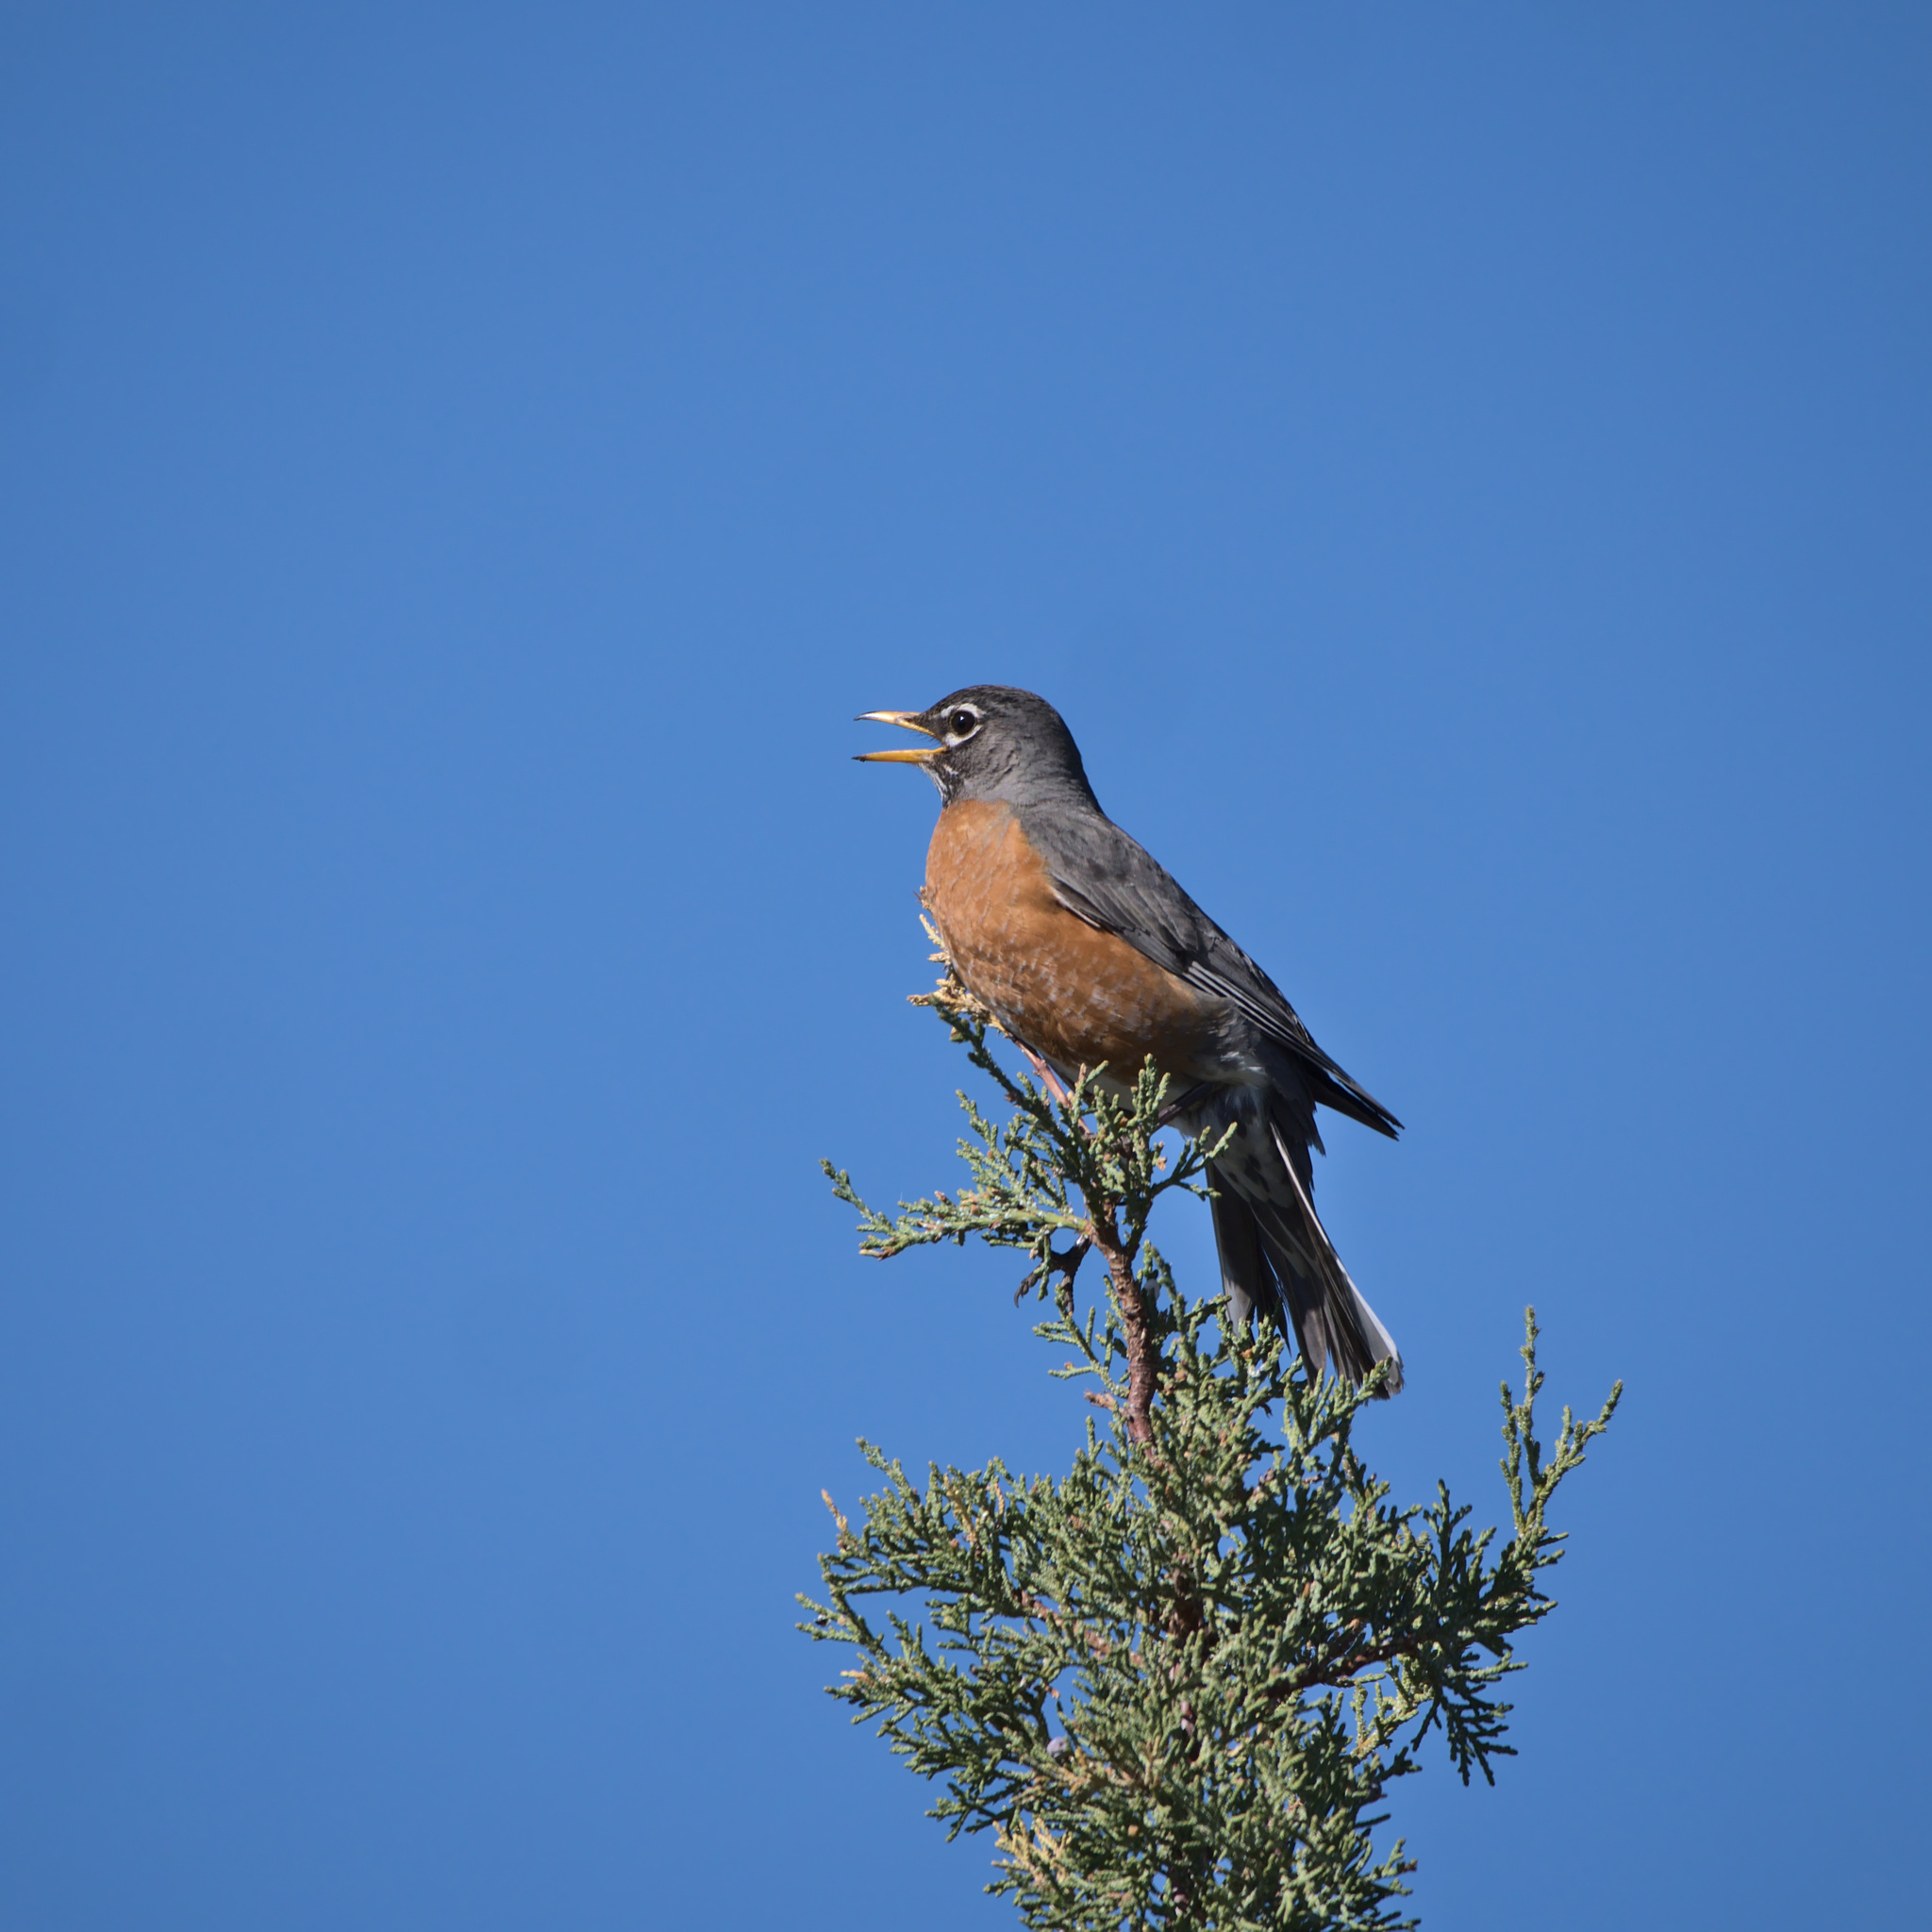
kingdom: Animalia
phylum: Chordata
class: Aves
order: Passeriformes
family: Turdidae
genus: Turdus
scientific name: Turdus migratorius
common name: American robin
